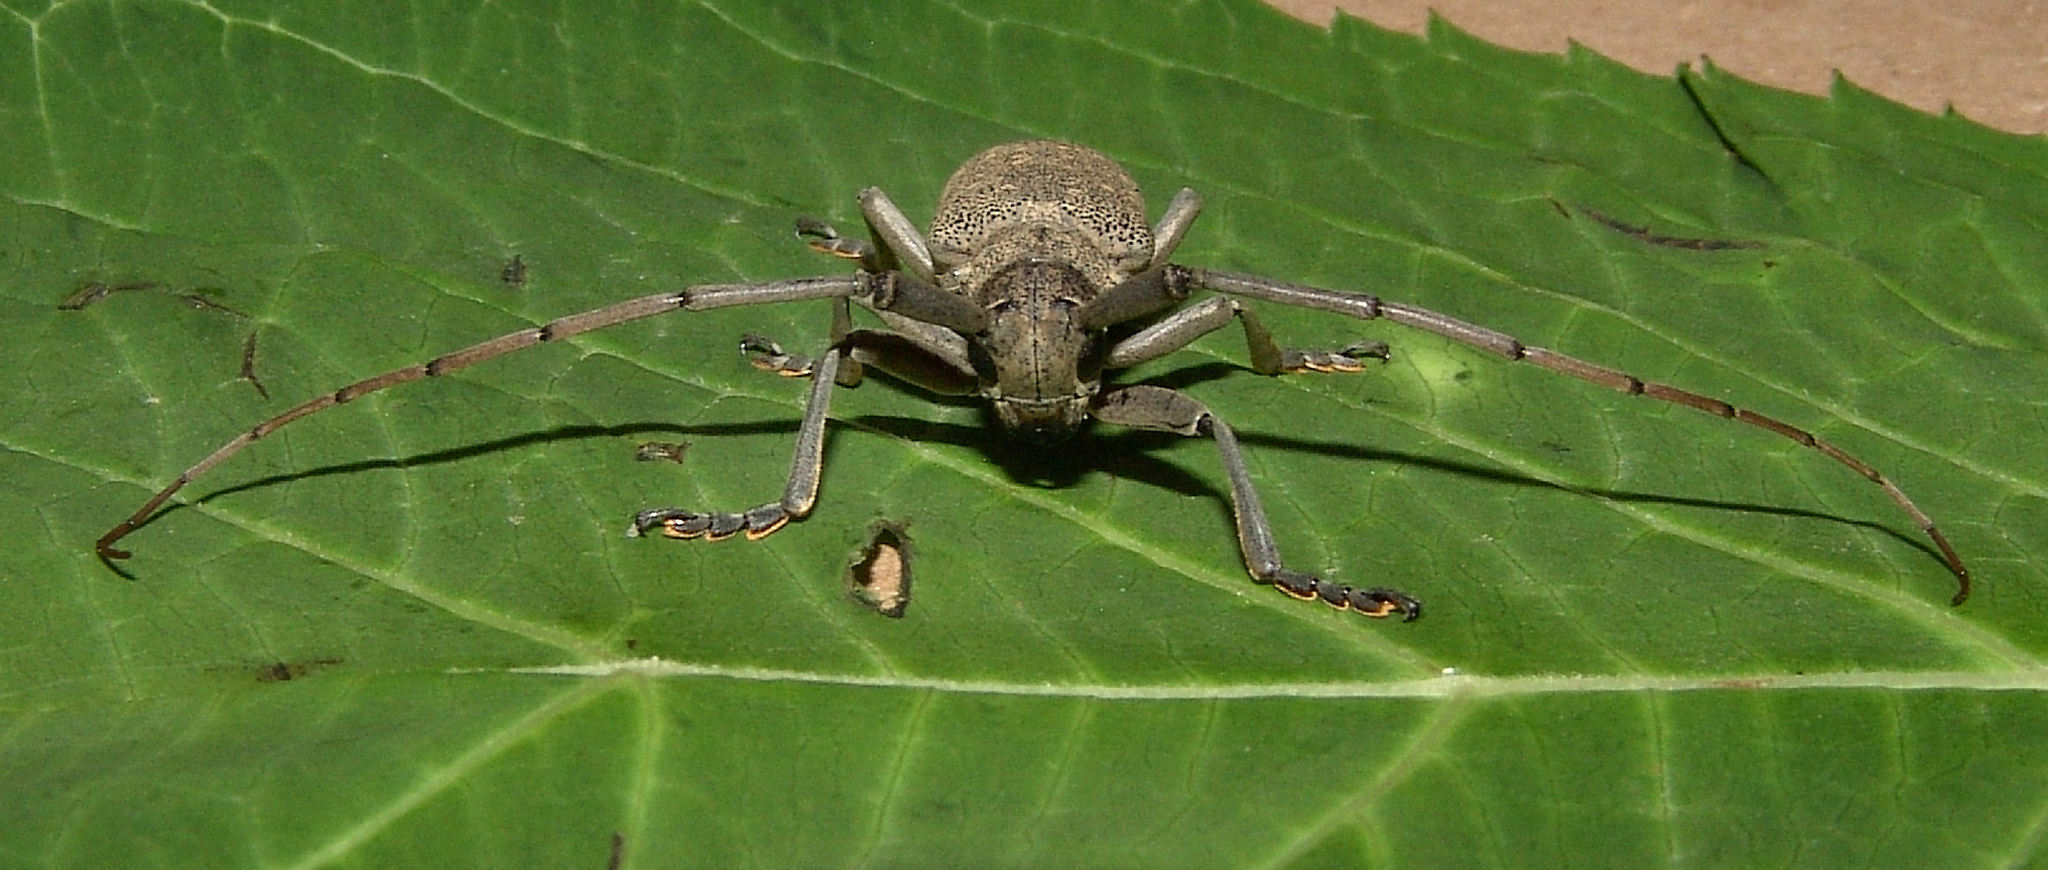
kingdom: Animalia
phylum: Arthropoda
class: Insecta
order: Coleoptera
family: Cerambycidae
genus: Goes
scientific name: Goes tesselatus
